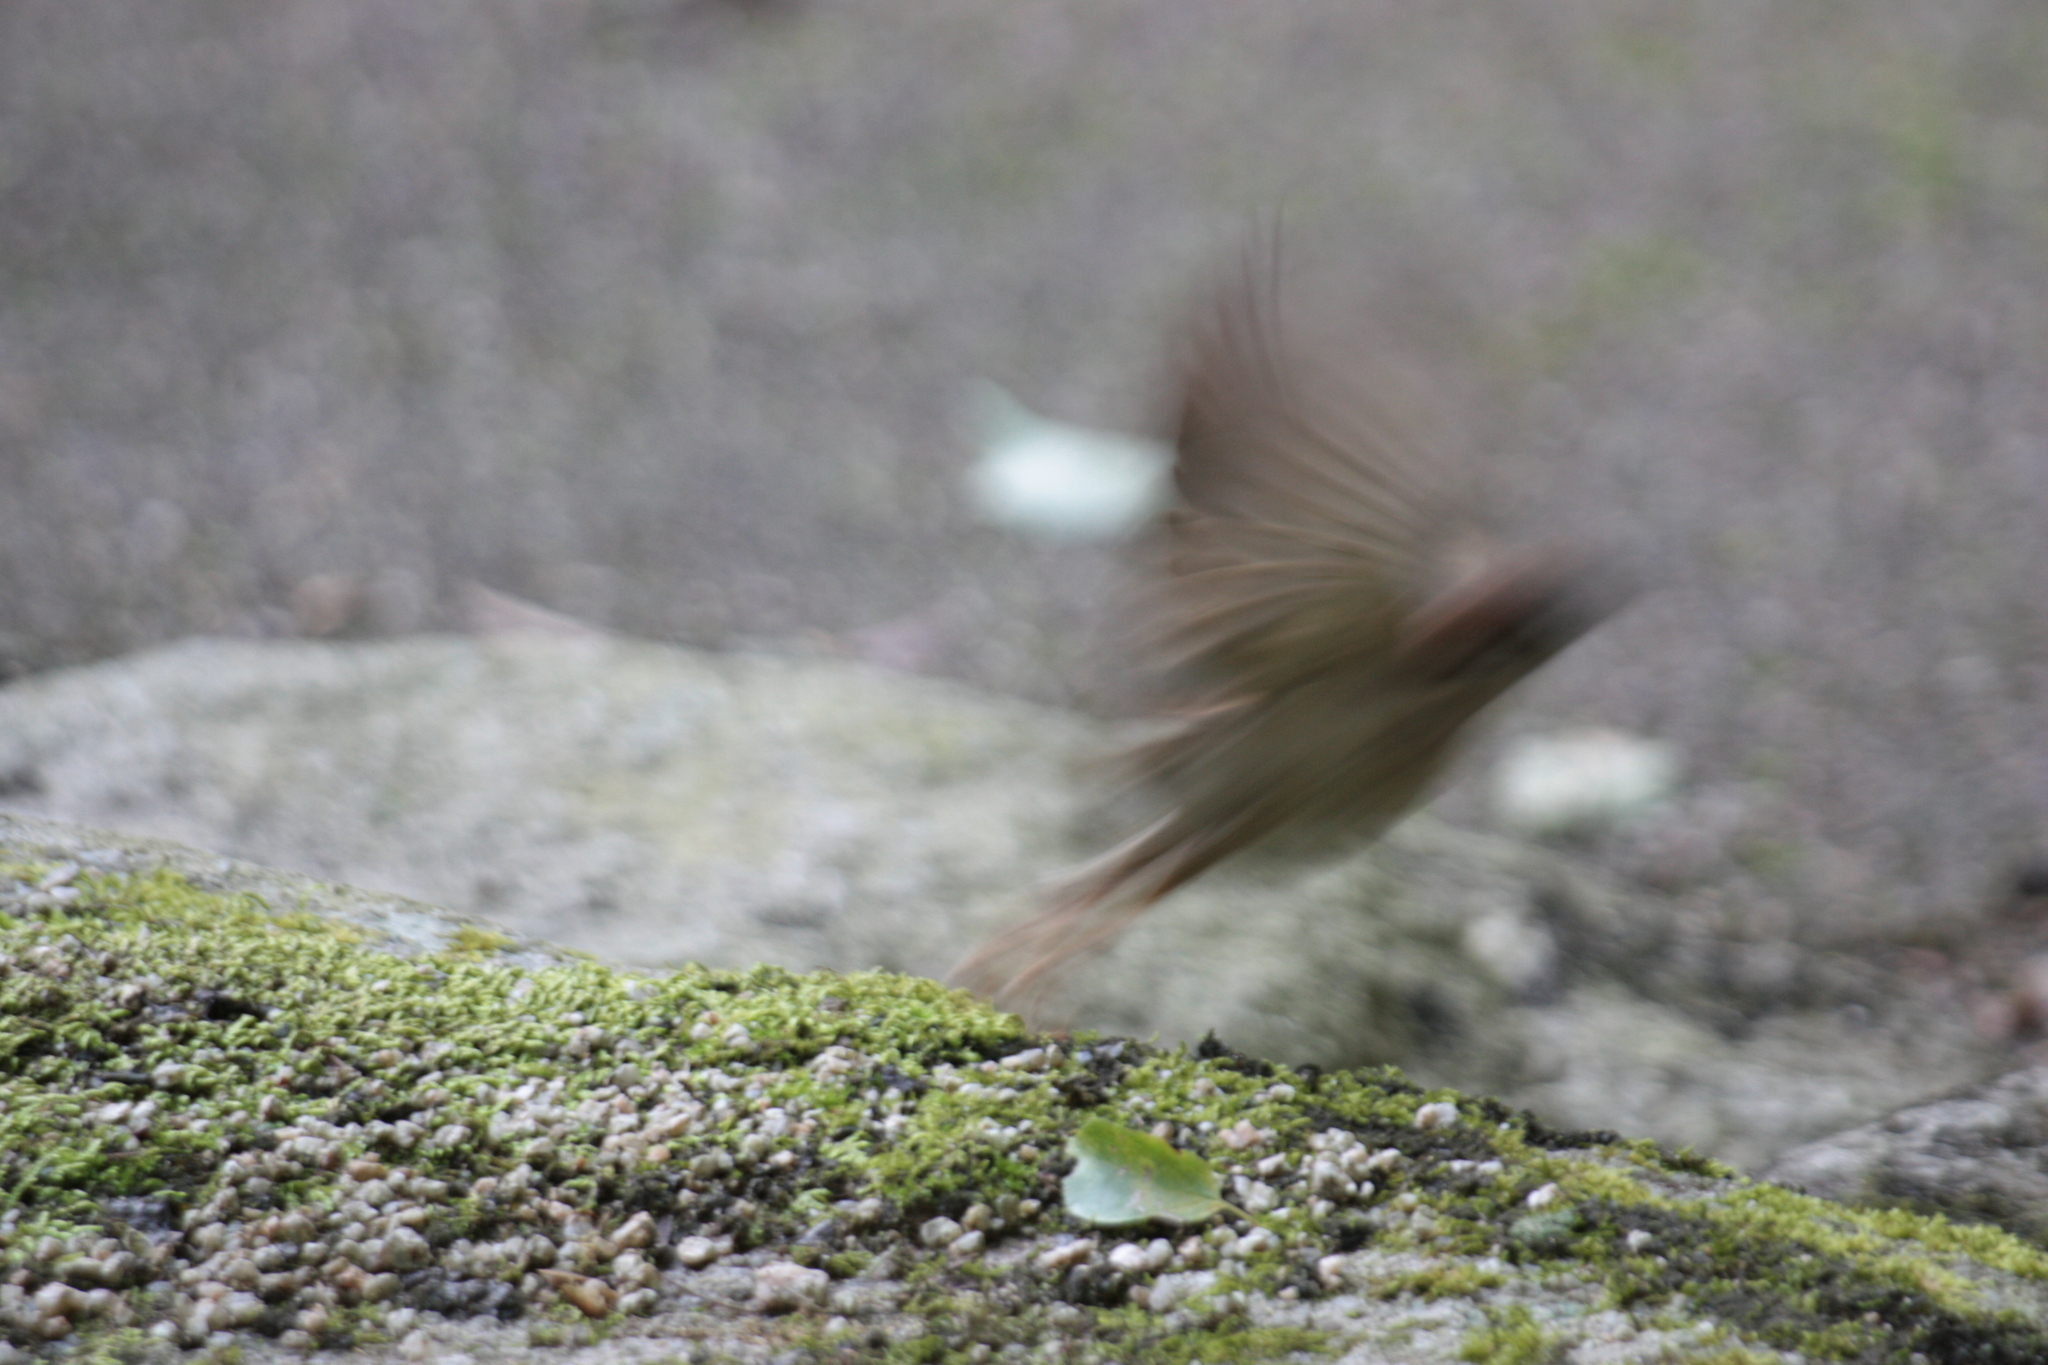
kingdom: Animalia
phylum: Chordata
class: Aves
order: Passeriformes
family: Passeridae
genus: Passer
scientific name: Passer montanus
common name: Eurasian tree sparrow
